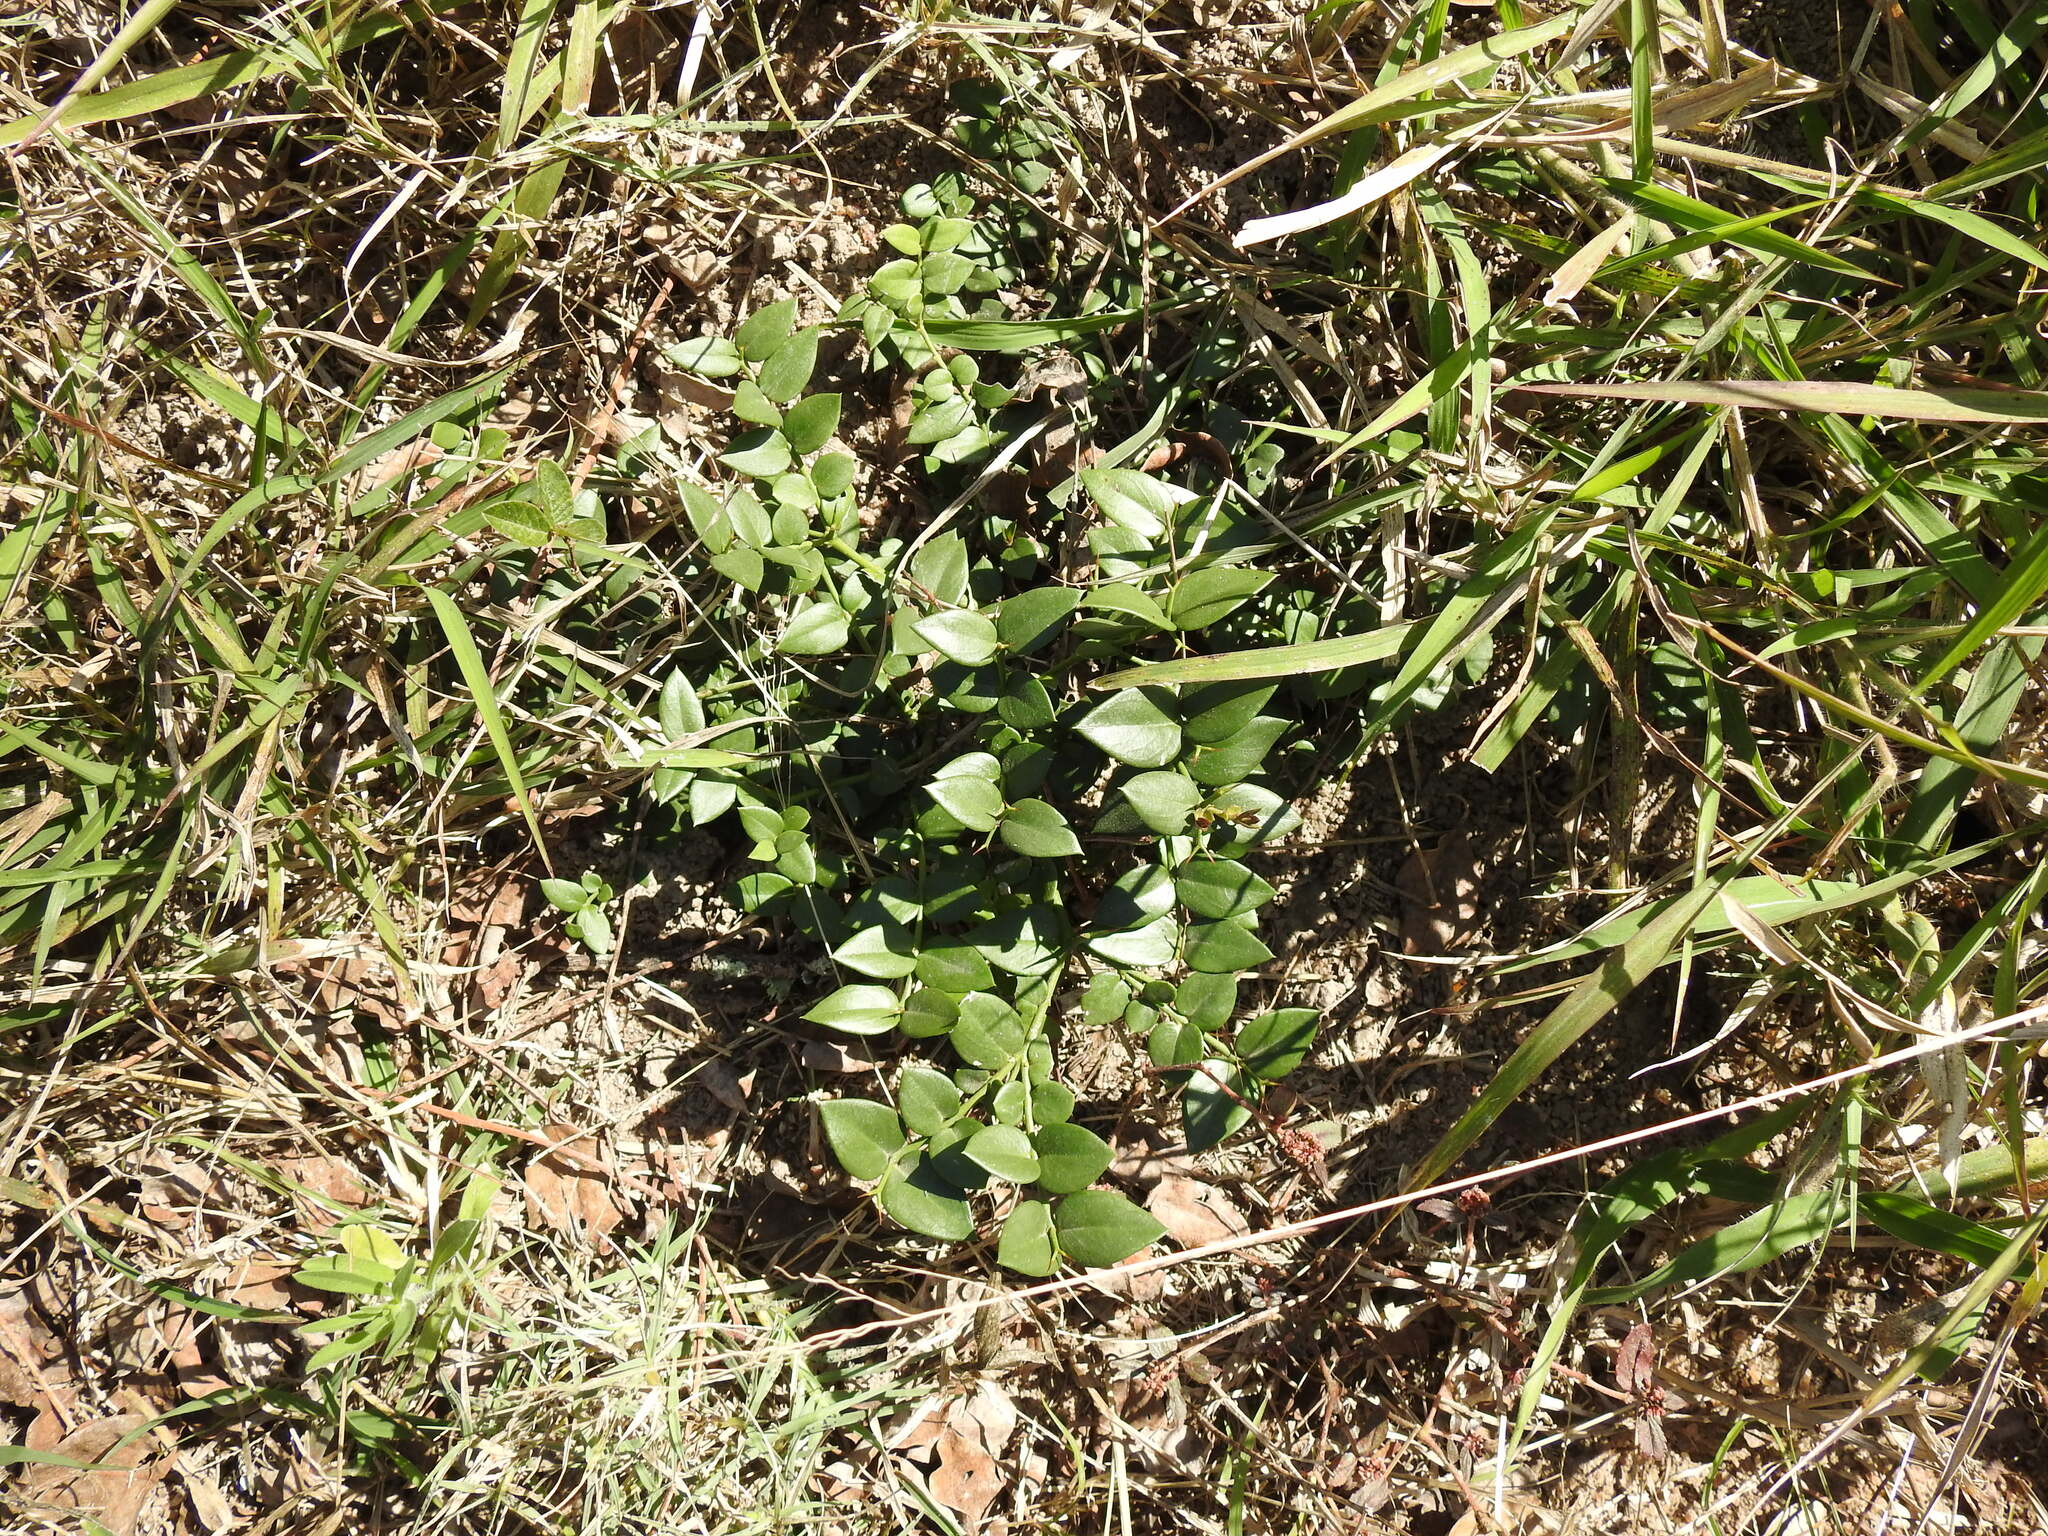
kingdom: Plantae
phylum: Tracheophyta
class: Magnoliopsida
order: Gentianales
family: Apocynaceae
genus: Carissa
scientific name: Carissa bispinosa
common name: Forest num-num
